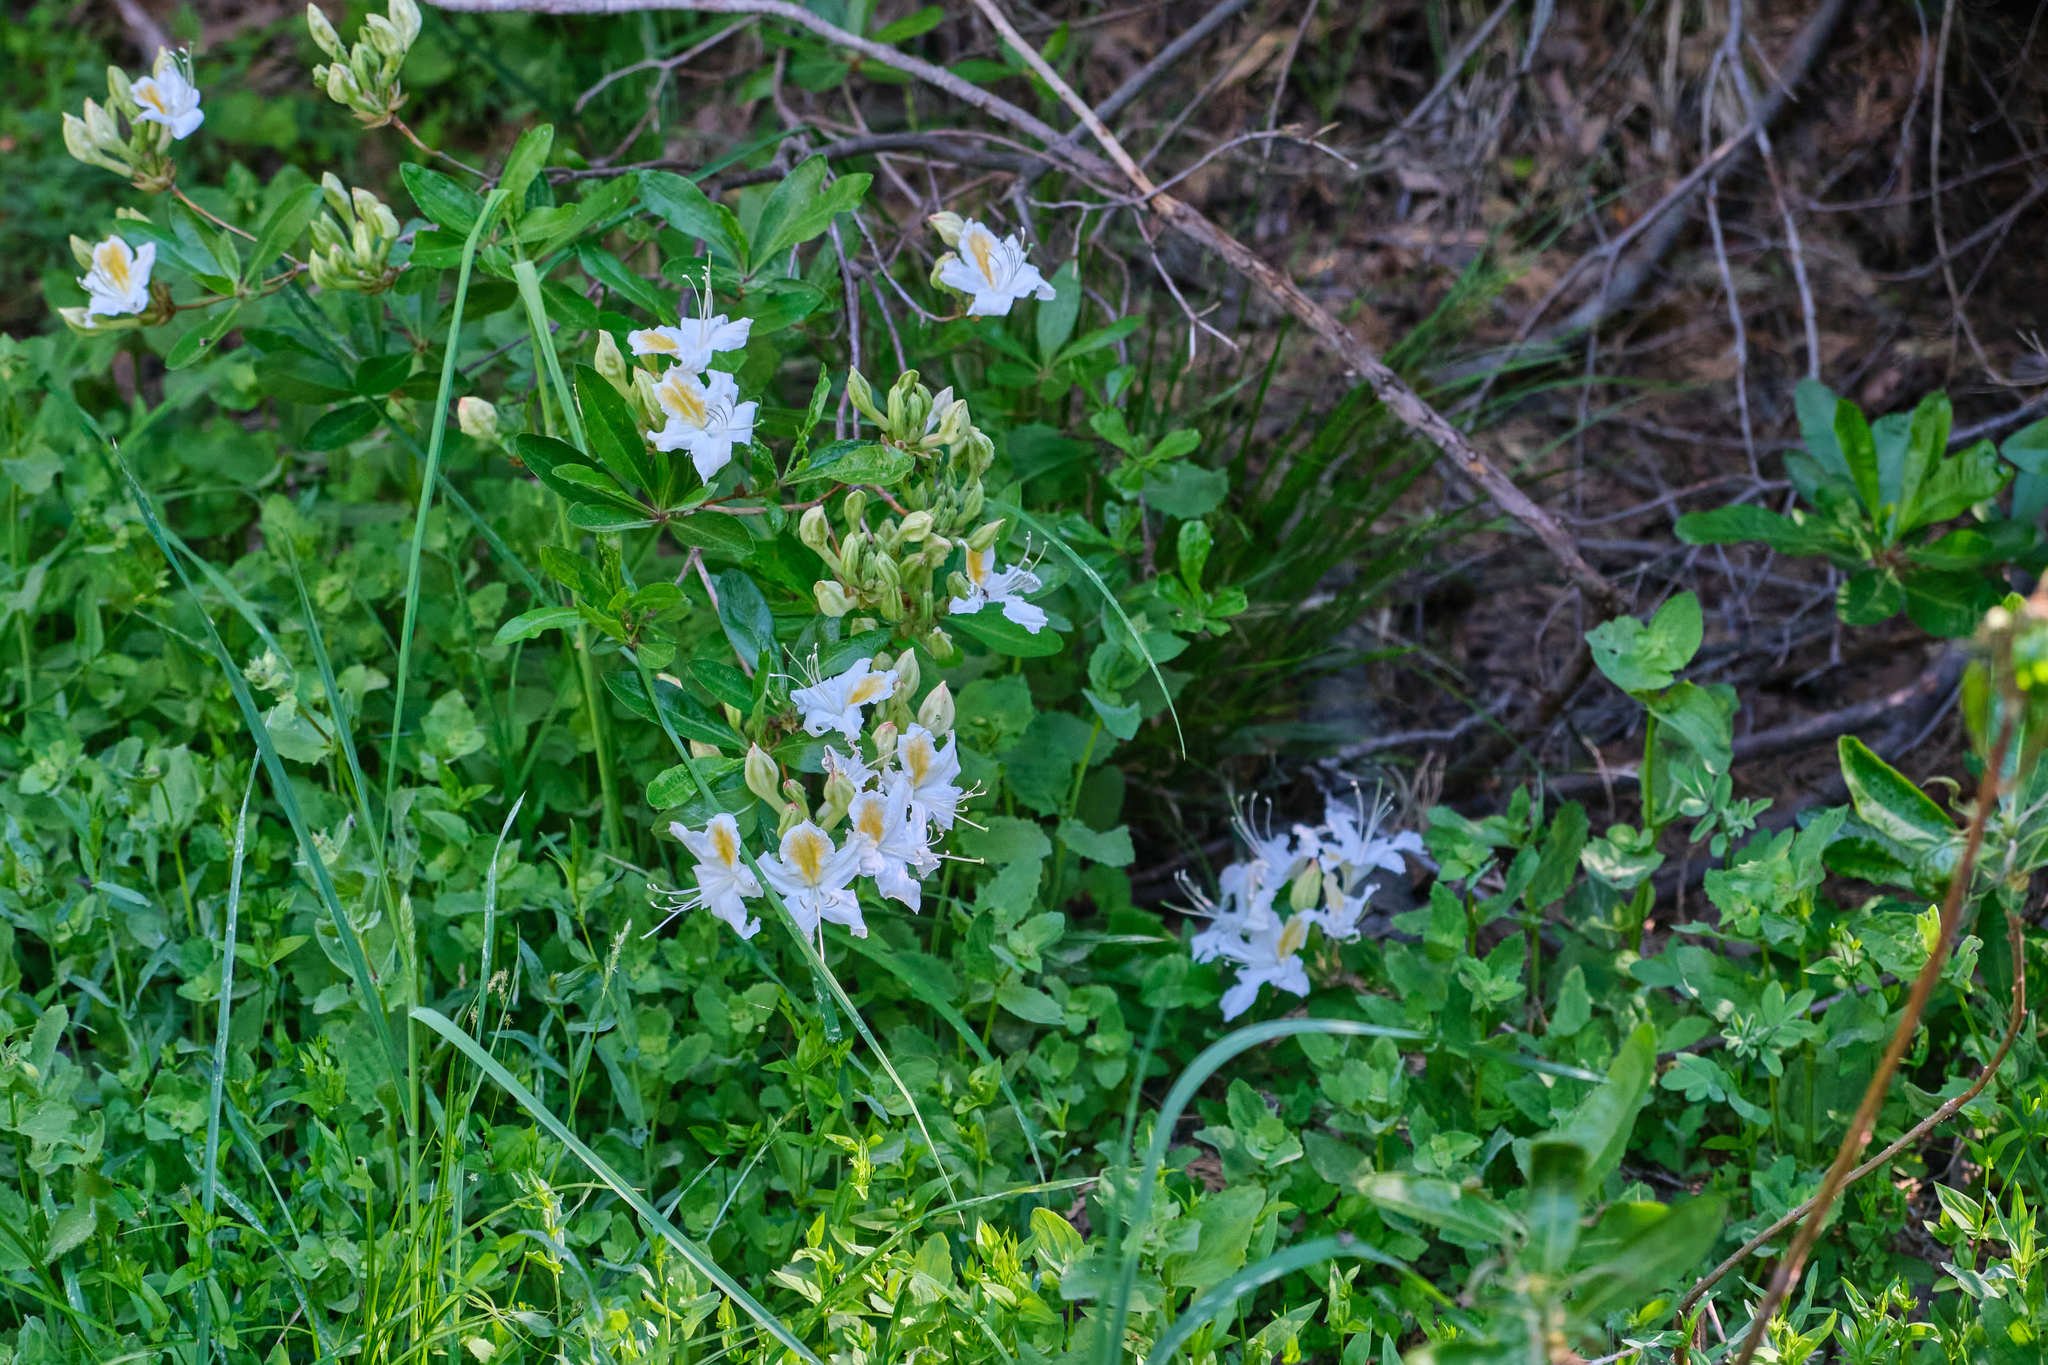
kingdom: Plantae
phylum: Tracheophyta
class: Magnoliopsida
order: Ericales
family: Ericaceae
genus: Rhododendron
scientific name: Rhododendron occidentale
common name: Western azalea
